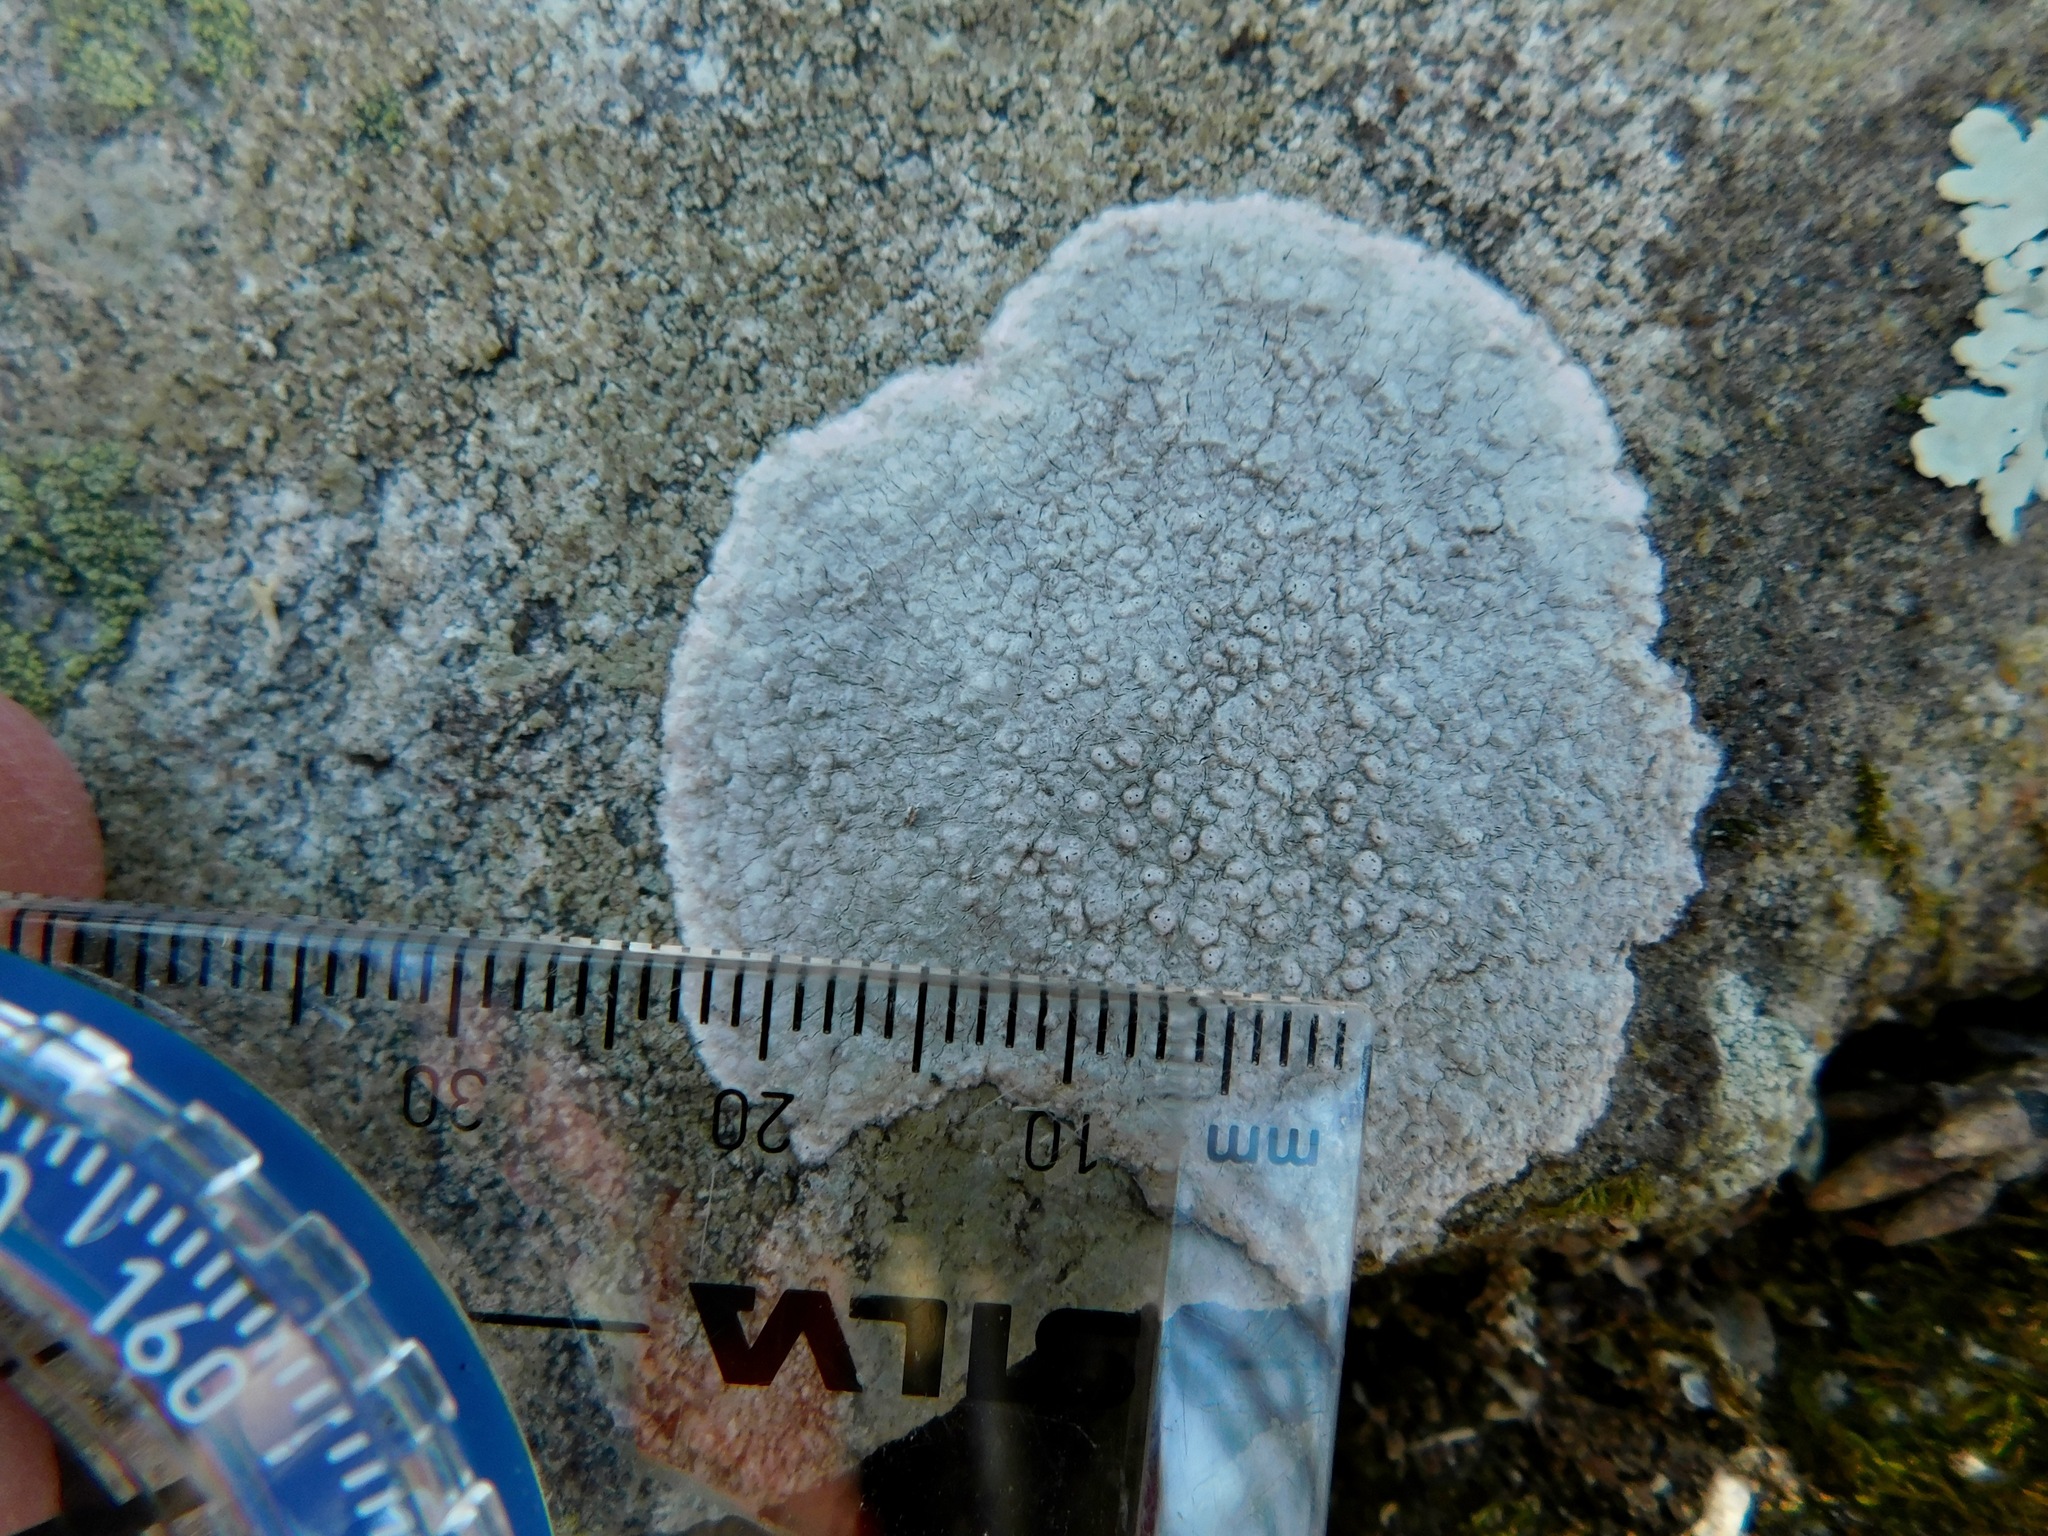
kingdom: Fungi
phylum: Ascomycota
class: Lecanoromycetes
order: Pertusariales
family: Pertusariaceae
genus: Pertusaria
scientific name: Pertusaria plittiana
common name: Rock wart lichen
